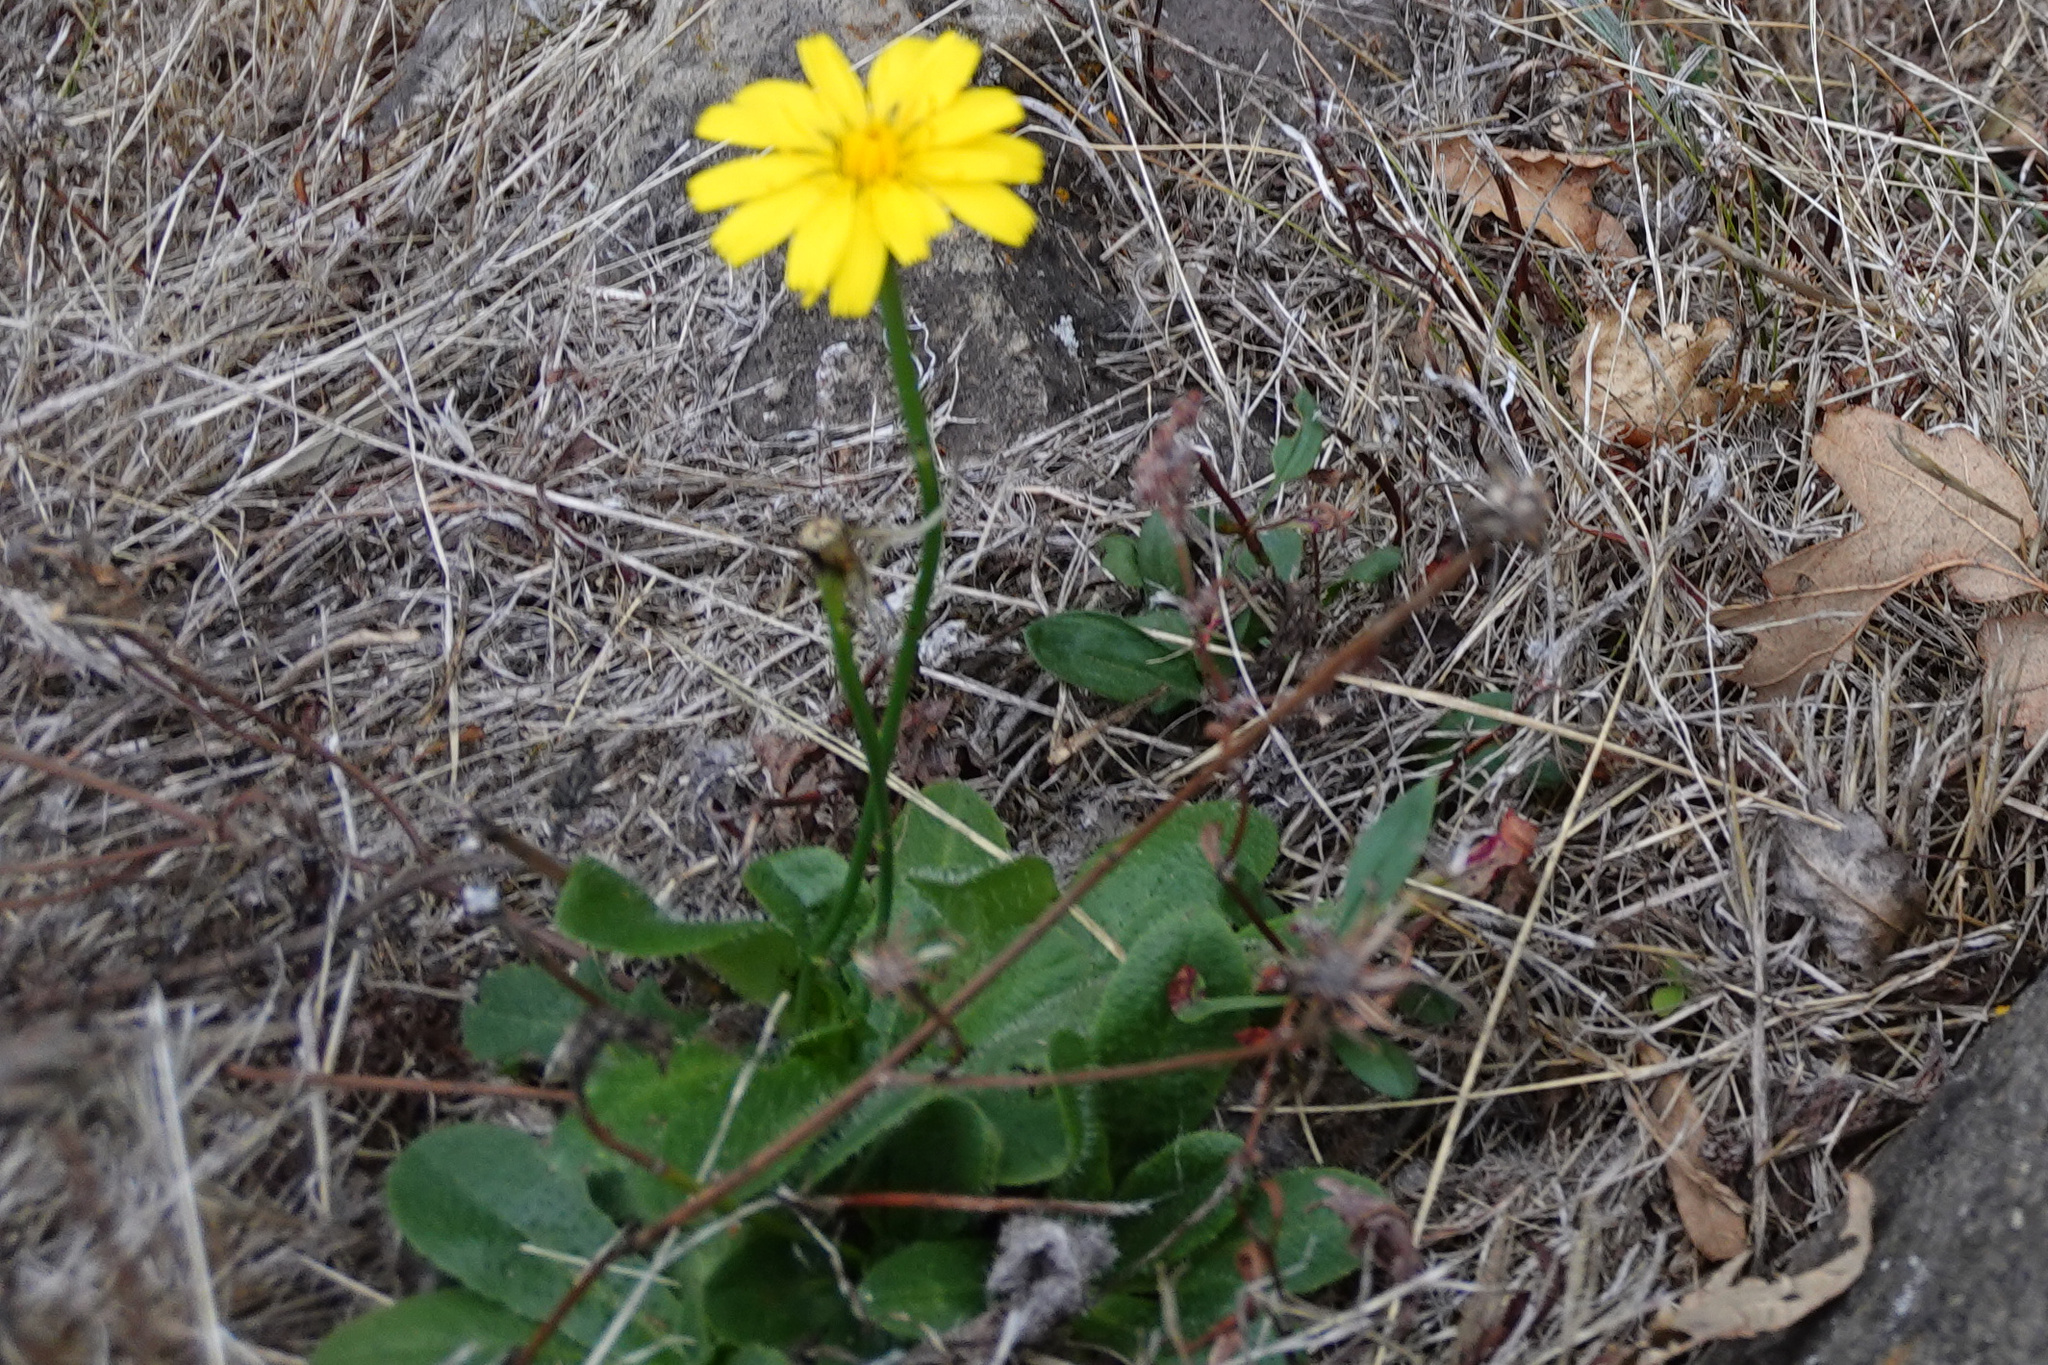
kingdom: Plantae
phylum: Tracheophyta
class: Magnoliopsida
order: Asterales
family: Asteraceae
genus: Hypochaeris
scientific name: Hypochaeris radicata
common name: Flatweed
